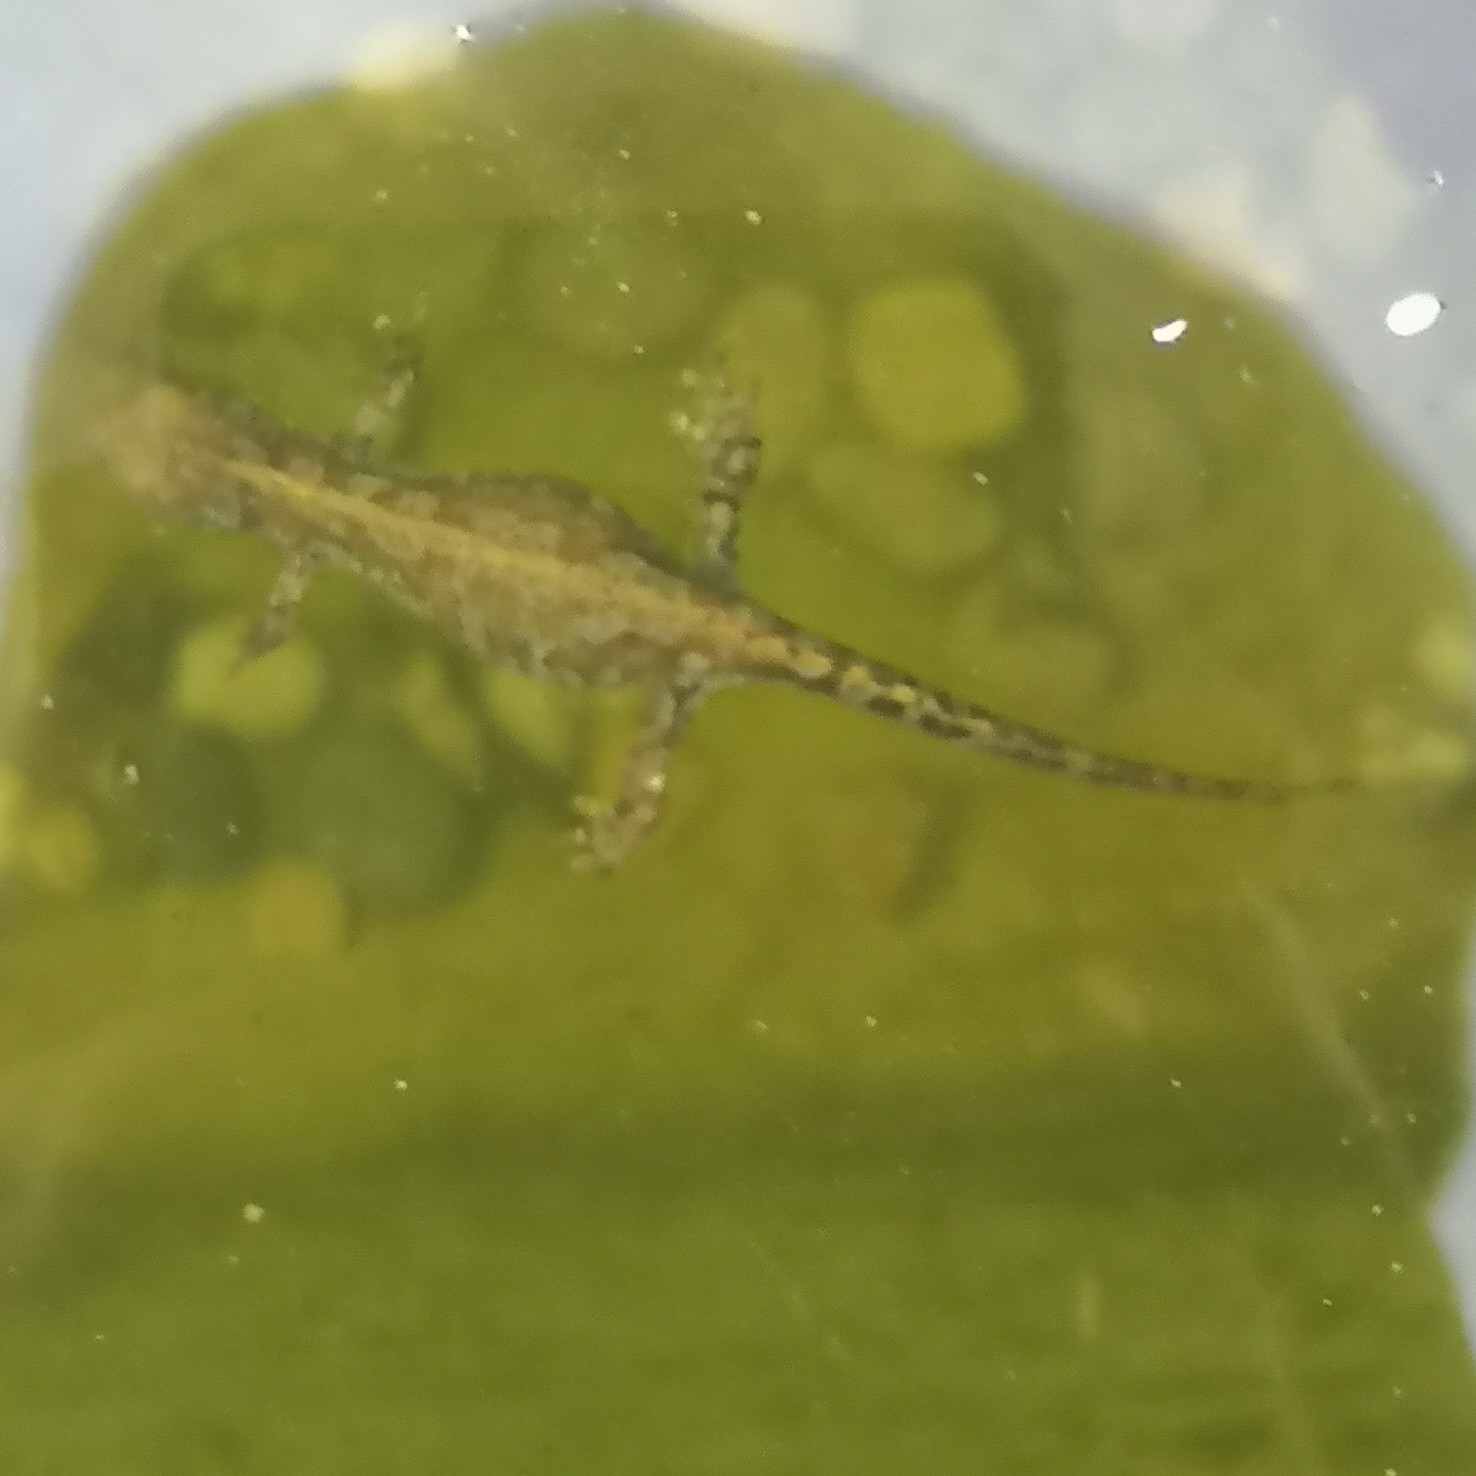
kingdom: Animalia
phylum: Chordata
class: Amphibia
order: Caudata
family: Salamandridae
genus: Ichthyosaura
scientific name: Ichthyosaura alpestris
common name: Alpine newt
